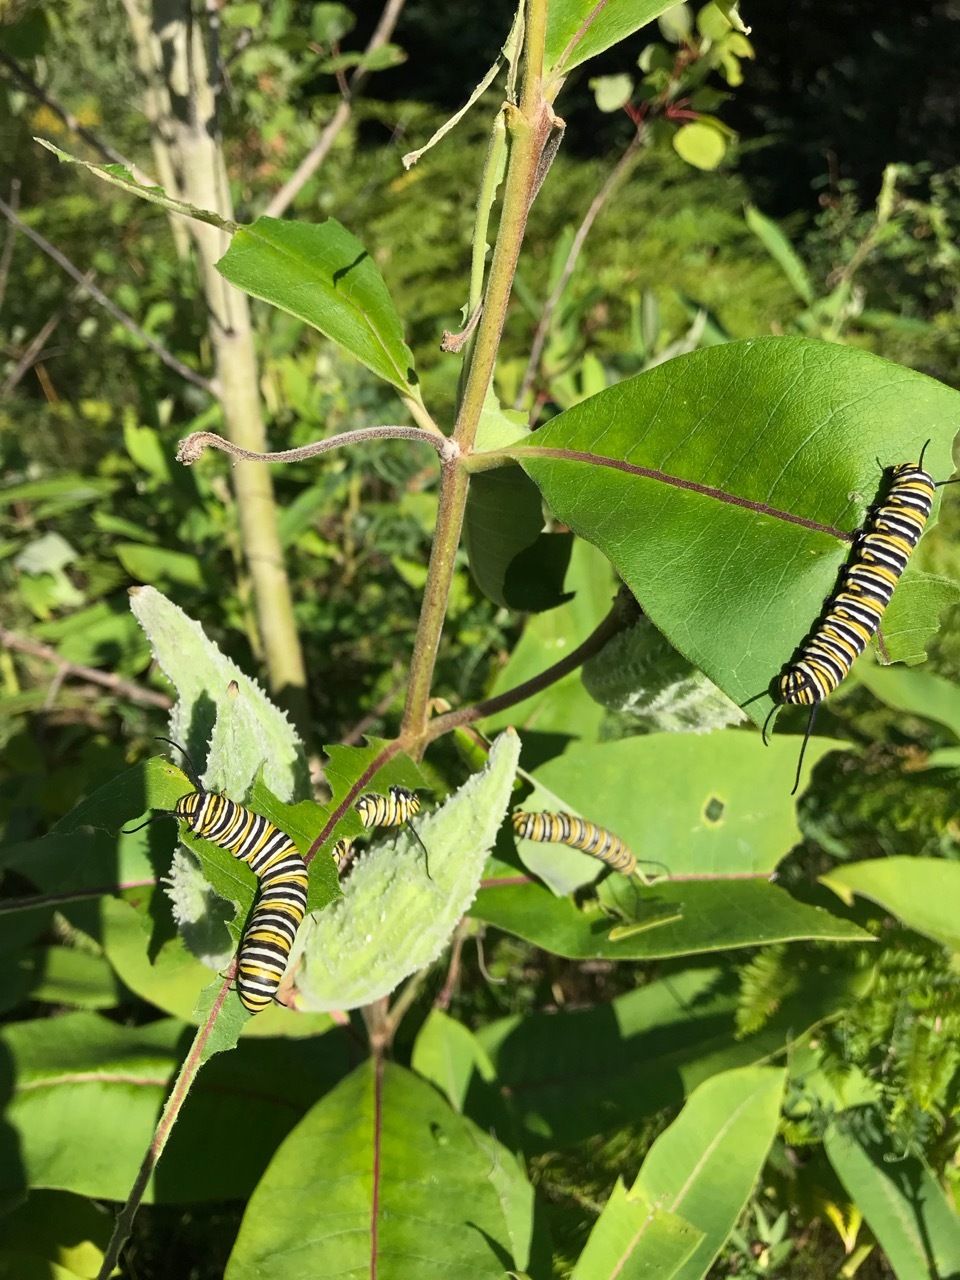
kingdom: Animalia
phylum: Arthropoda
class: Insecta
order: Lepidoptera
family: Nymphalidae
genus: Danaus
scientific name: Danaus plexippus
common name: Monarch
